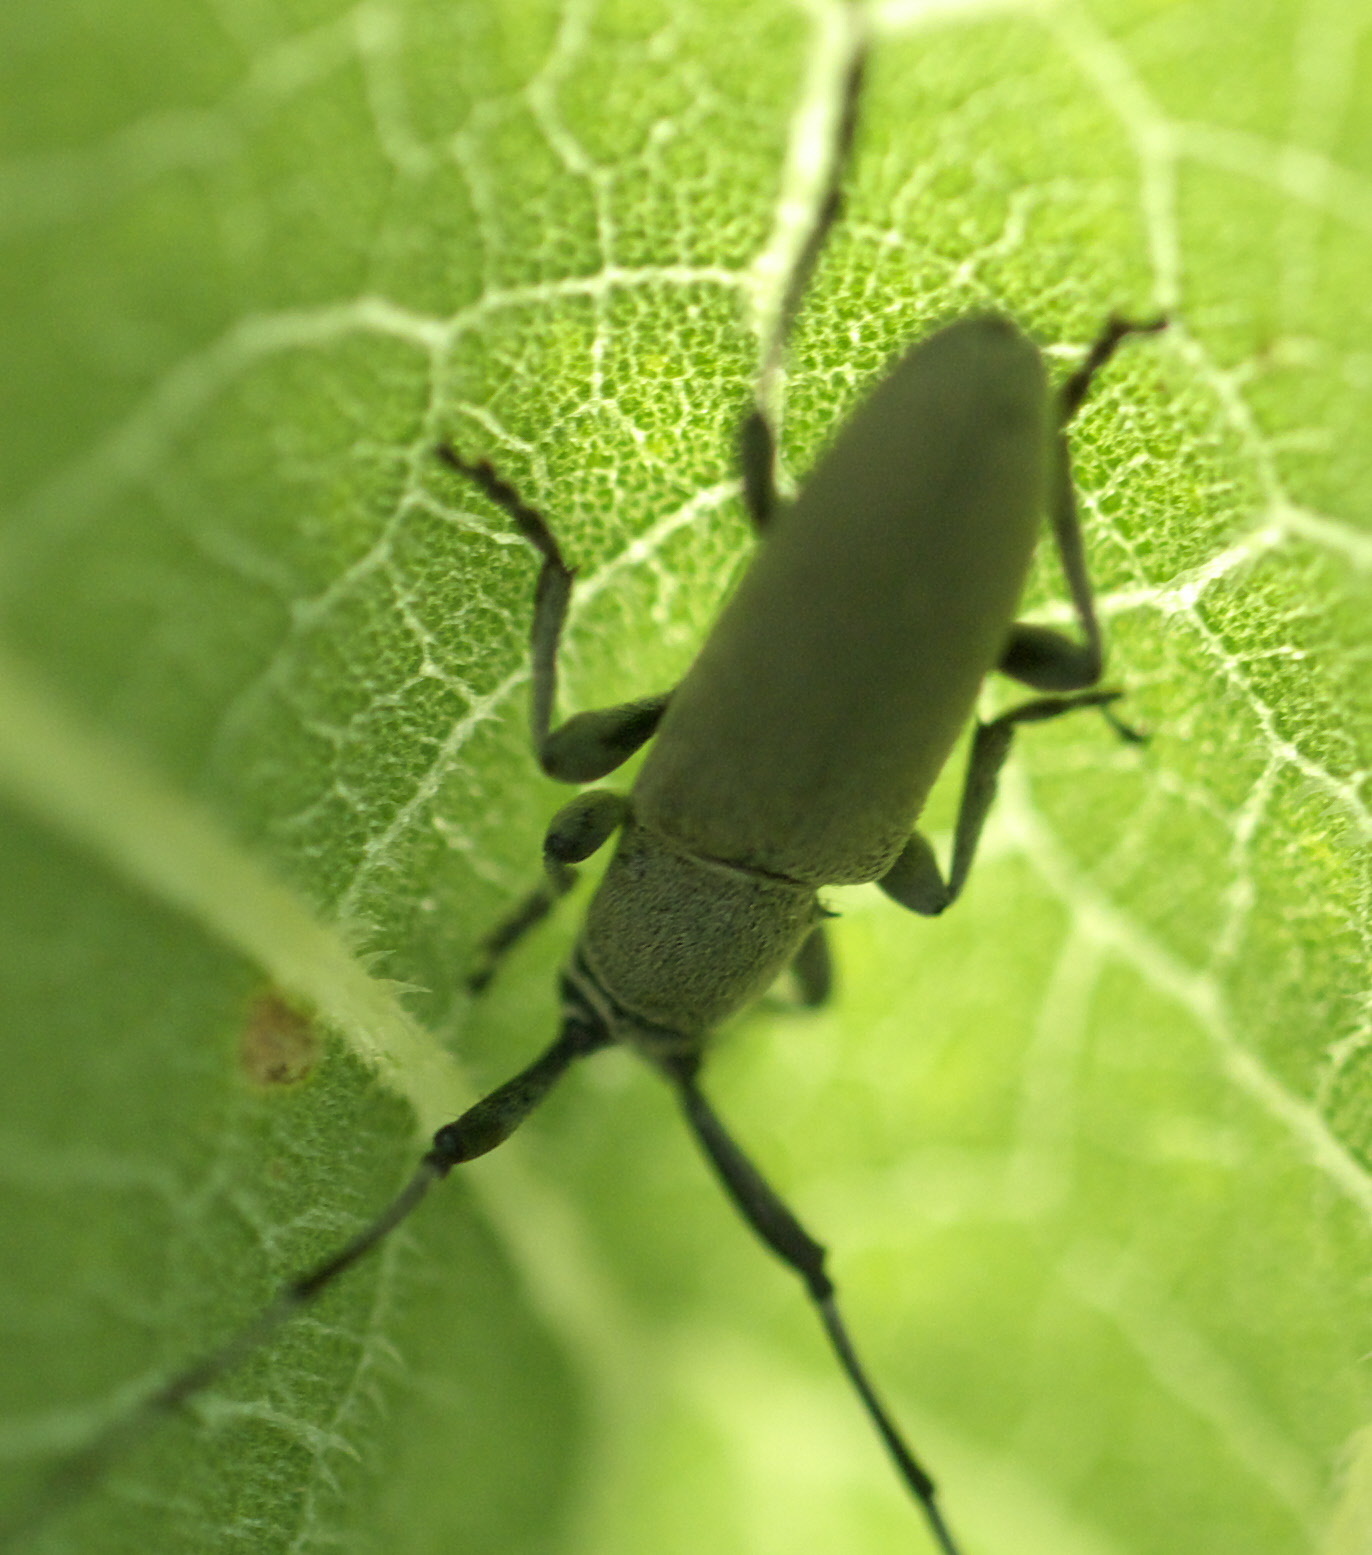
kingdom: Animalia
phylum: Arthropoda
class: Insecta
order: Coleoptera
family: Cerambycidae
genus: Dectes
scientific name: Dectes texanus
